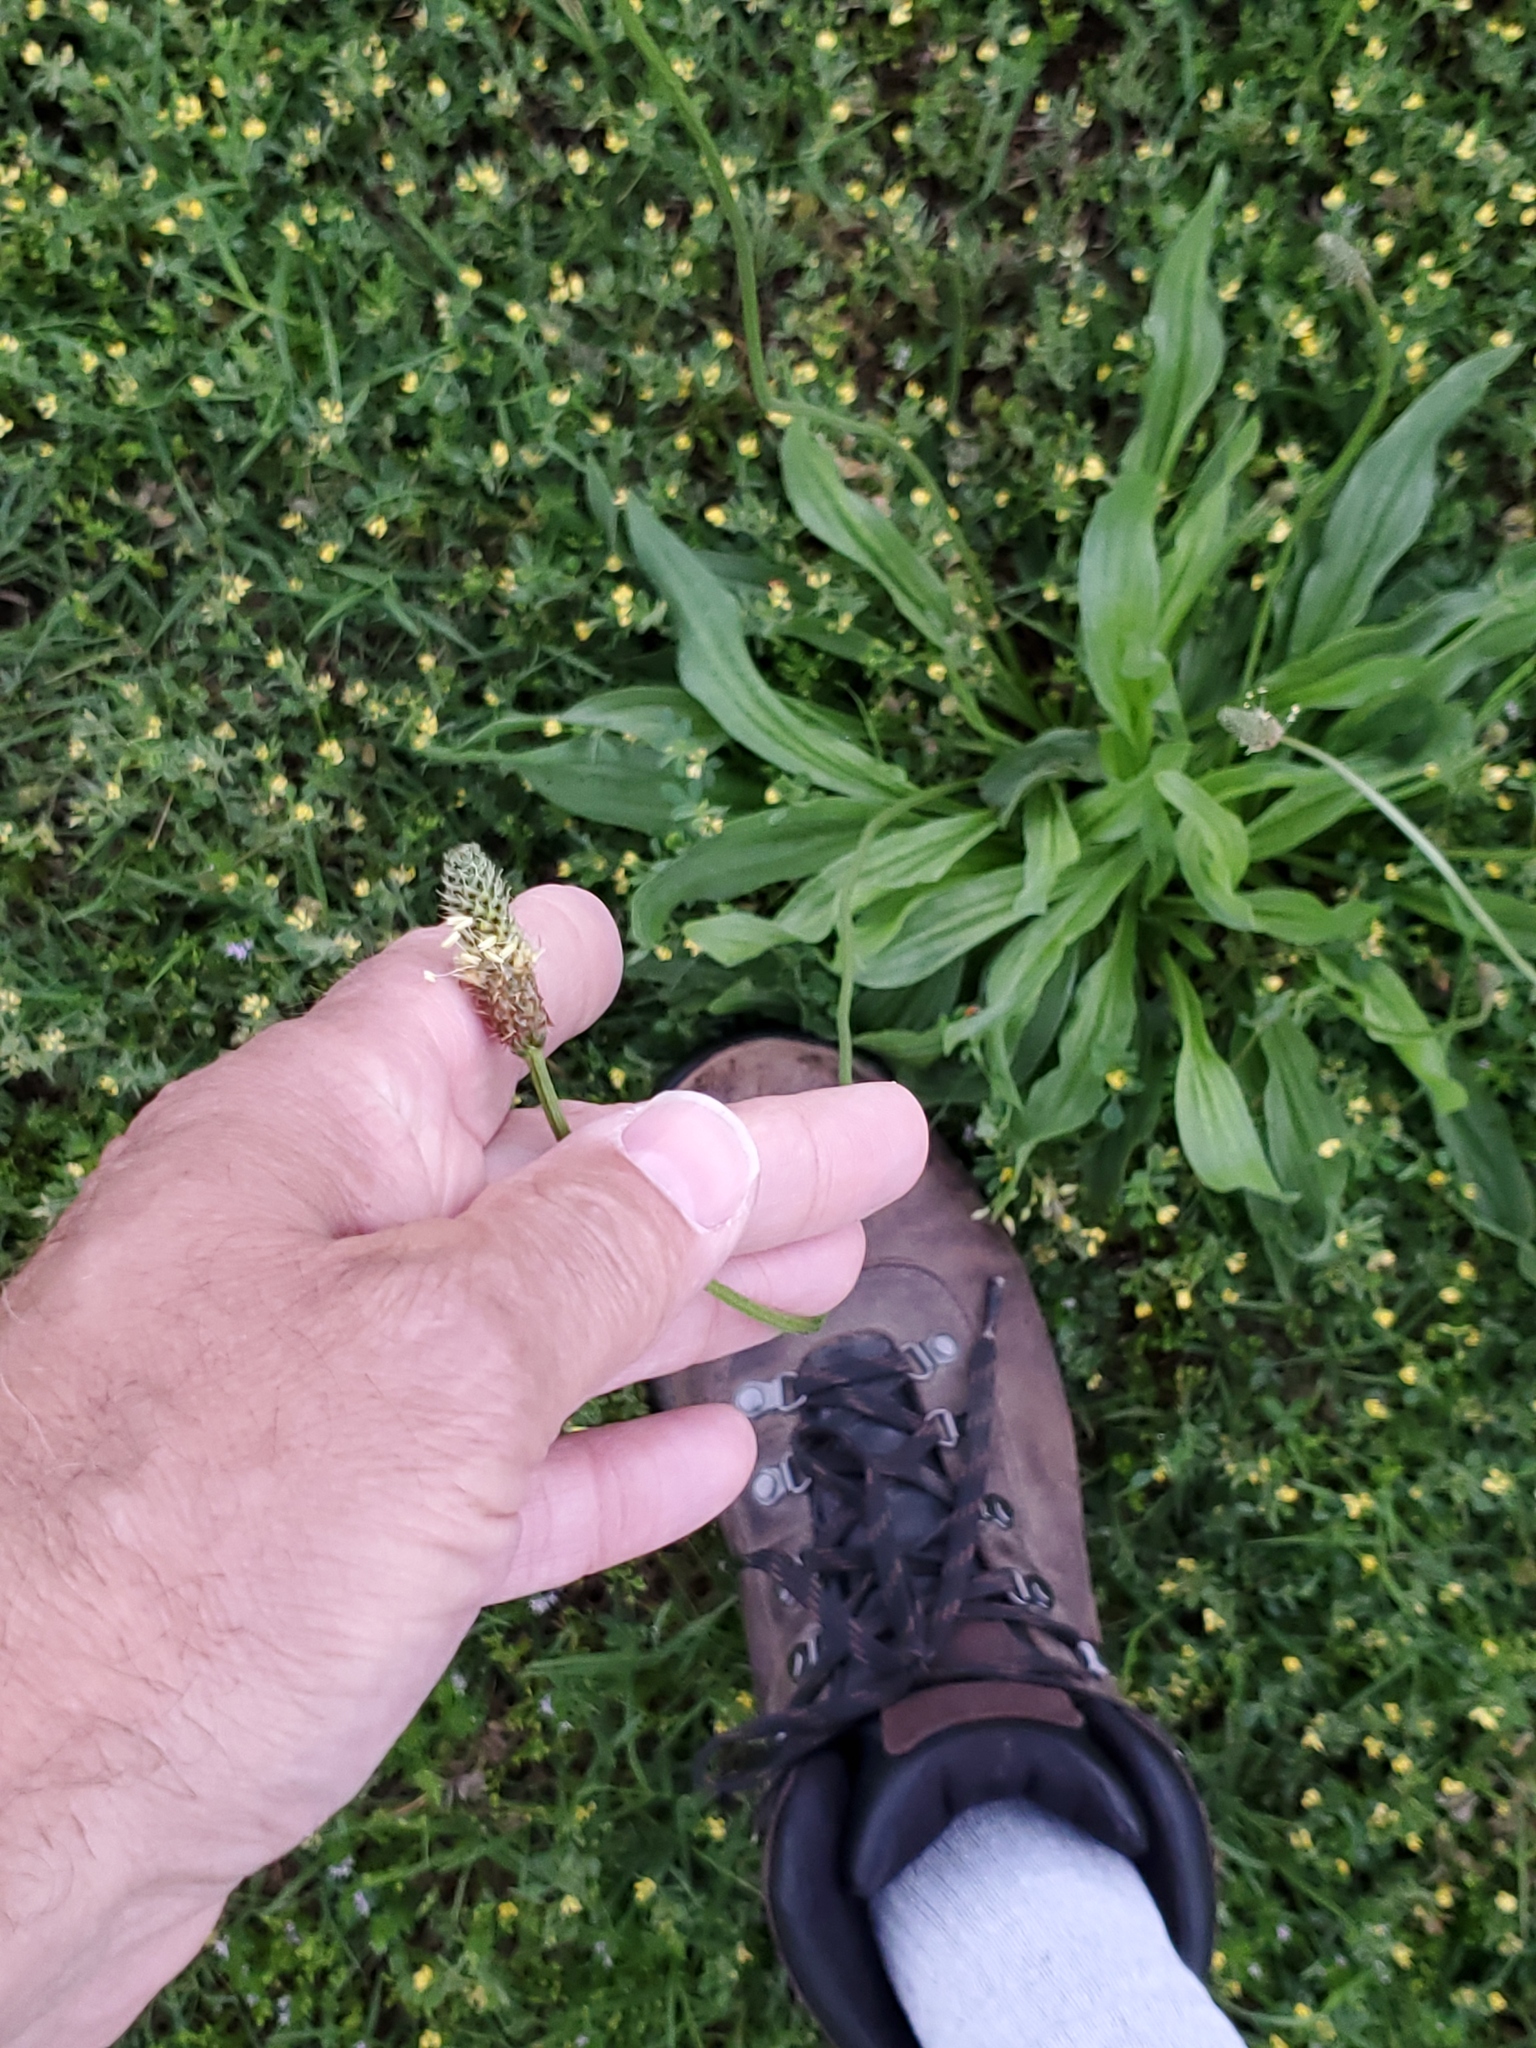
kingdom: Plantae
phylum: Tracheophyta
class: Magnoliopsida
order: Lamiales
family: Plantaginaceae
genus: Plantago
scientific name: Plantago lanceolata
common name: Ribwort plantain
